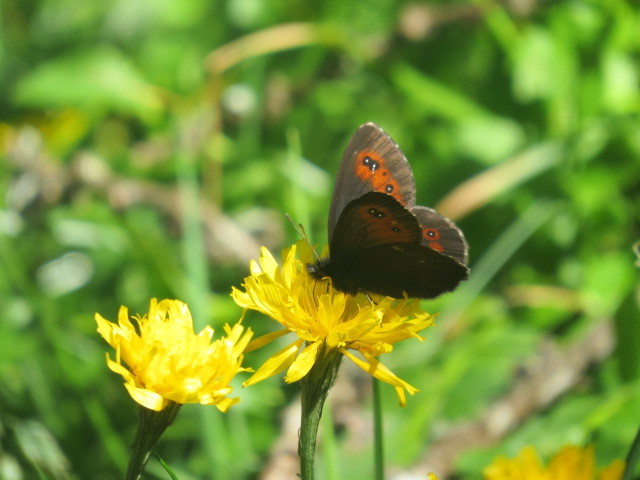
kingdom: Animalia
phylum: Arthropoda
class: Insecta
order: Lepidoptera
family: Nymphalidae
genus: Erebia
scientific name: Erebia euryale
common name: Large ringlet
